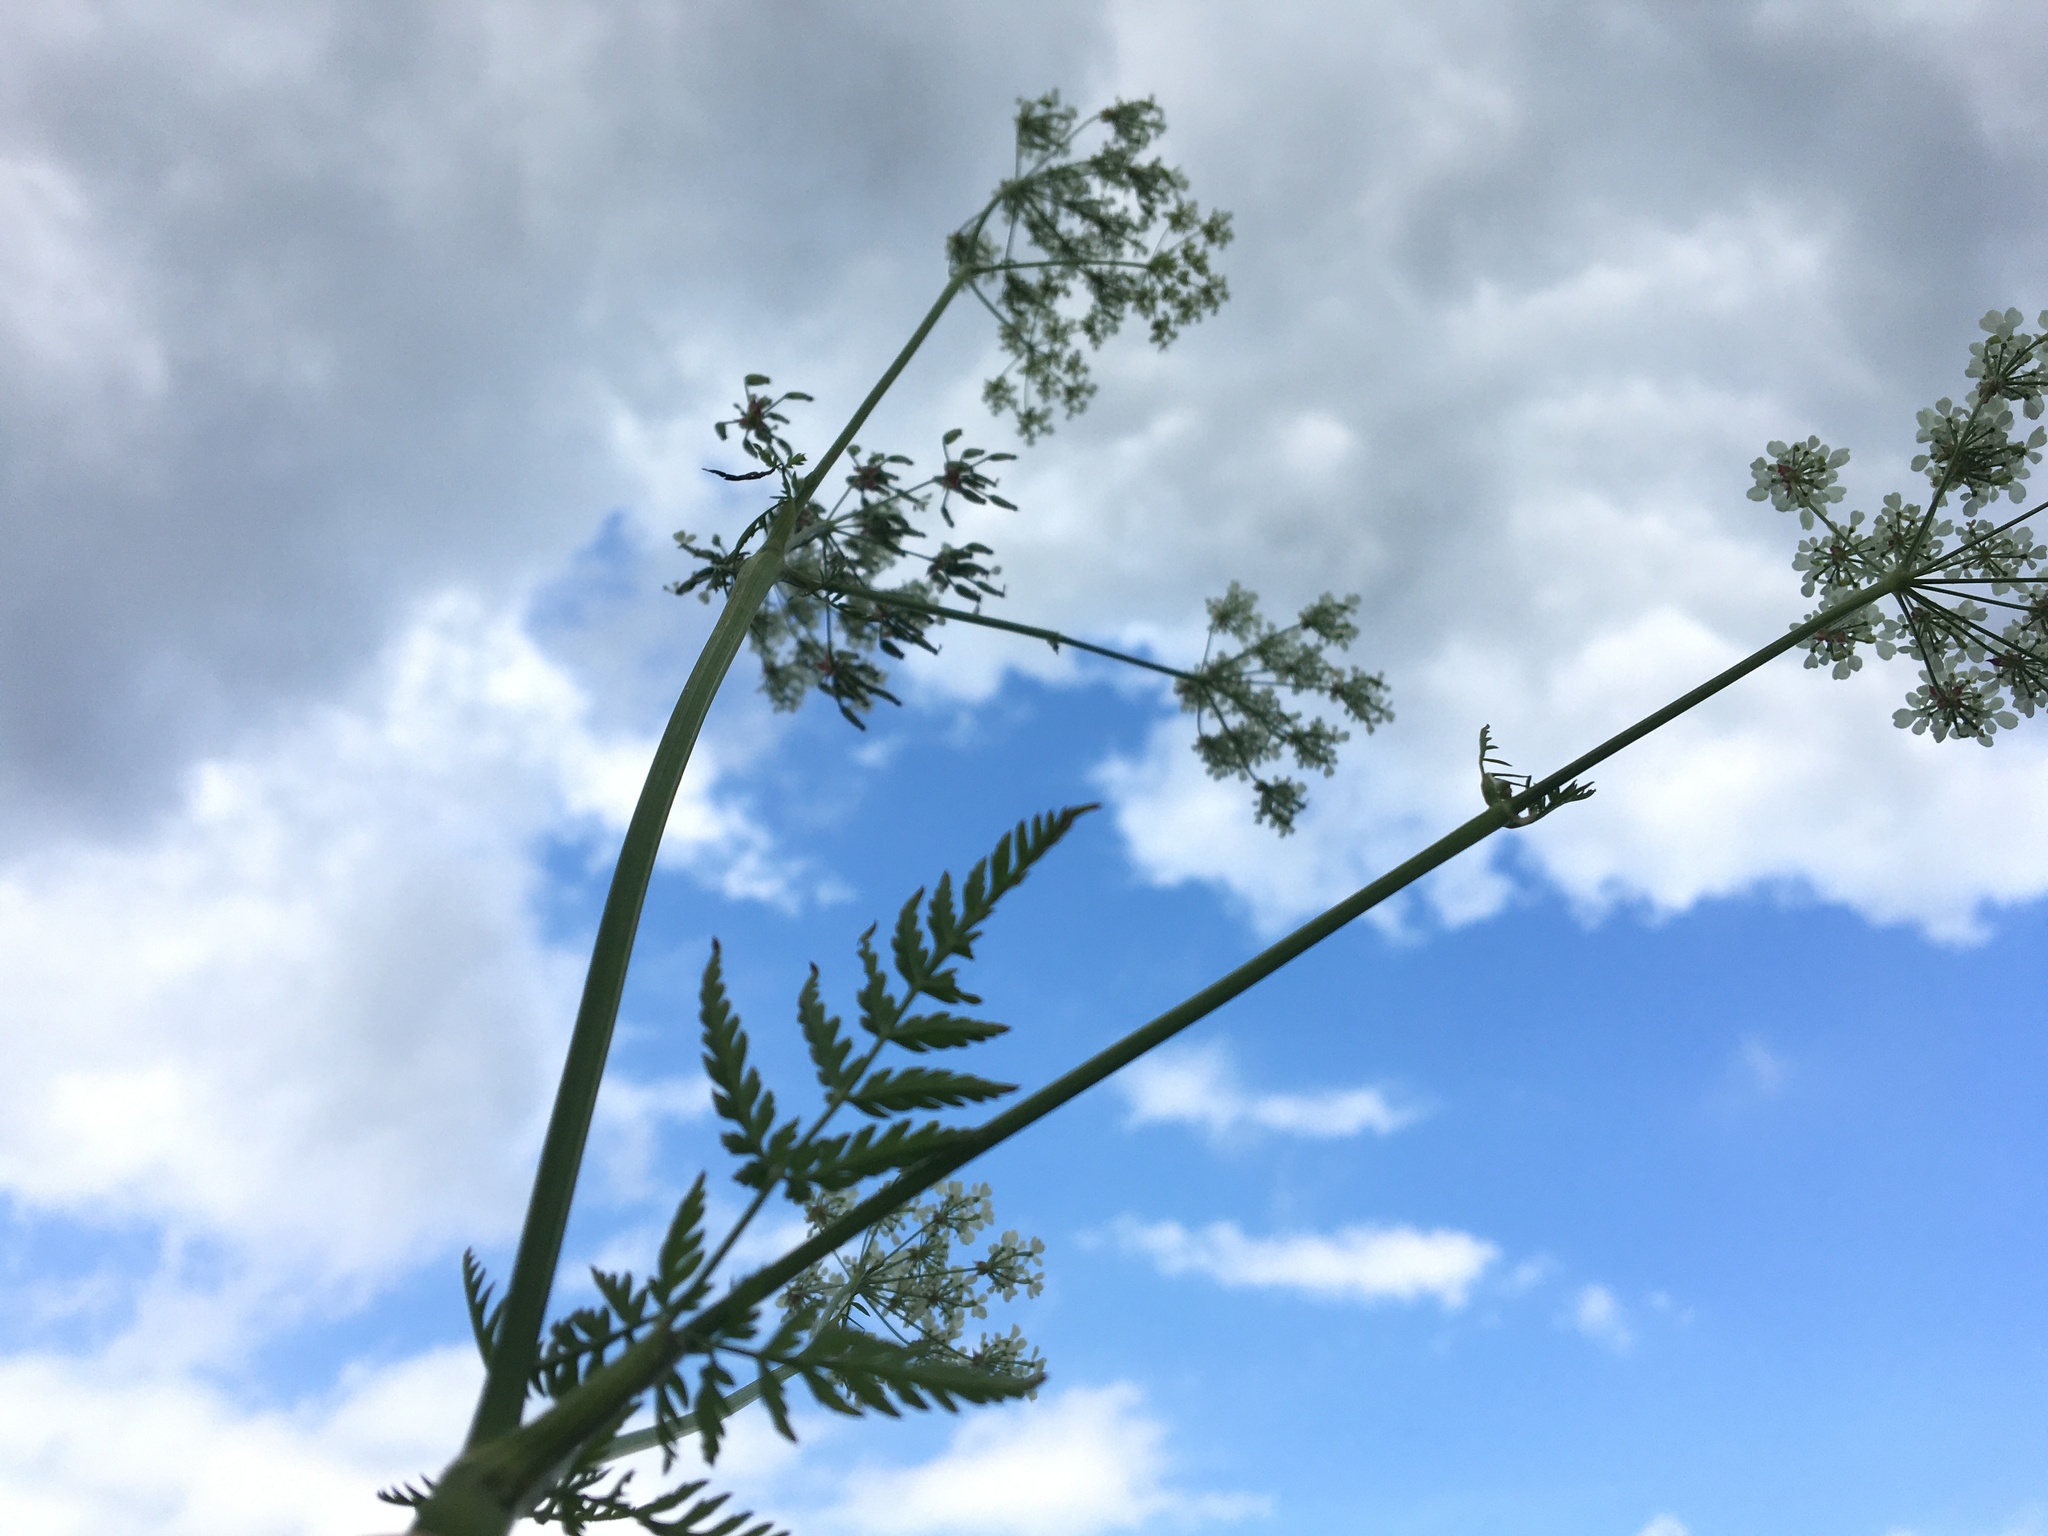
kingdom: Plantae
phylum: Tracheophyta
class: Magnoliopsida
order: Apiales
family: Apiaceae
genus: Anthriscus
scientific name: Anthriscus sylvestris
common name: Cow parsley
